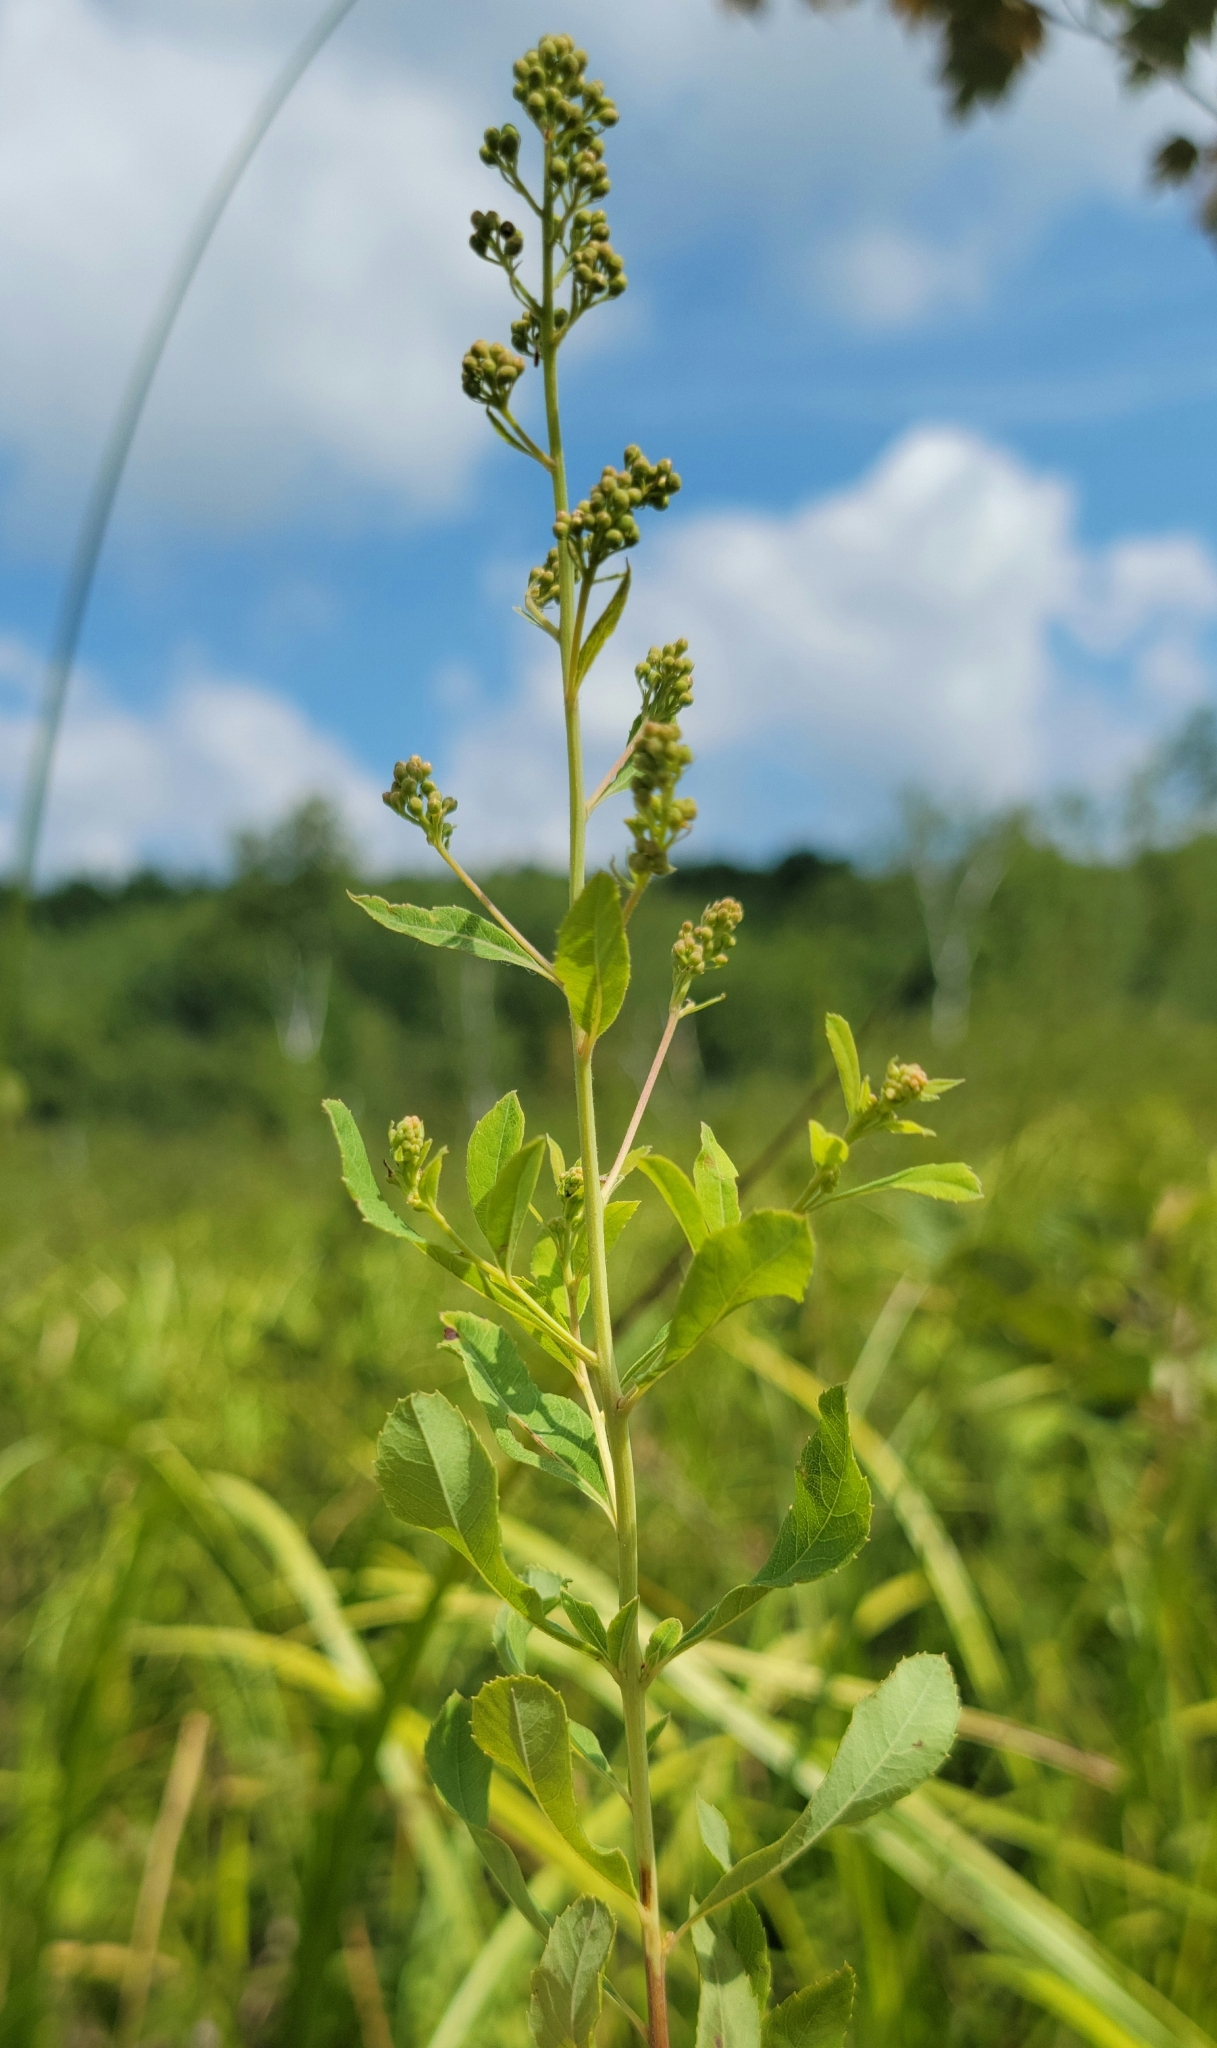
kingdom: Plantae
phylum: Tracheophyta
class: Magnoliopsida
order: Rosales
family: Rosaceae
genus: Spiraea
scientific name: Spiraea alba
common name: Pale bridewort
